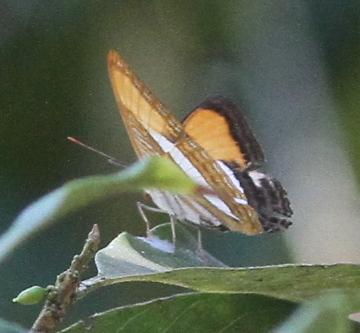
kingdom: Animalia
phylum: Arthropoda
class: Insecta
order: Lepidoptera
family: Nymphalidae
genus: Limenitis
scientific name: Limenitis cytherea
